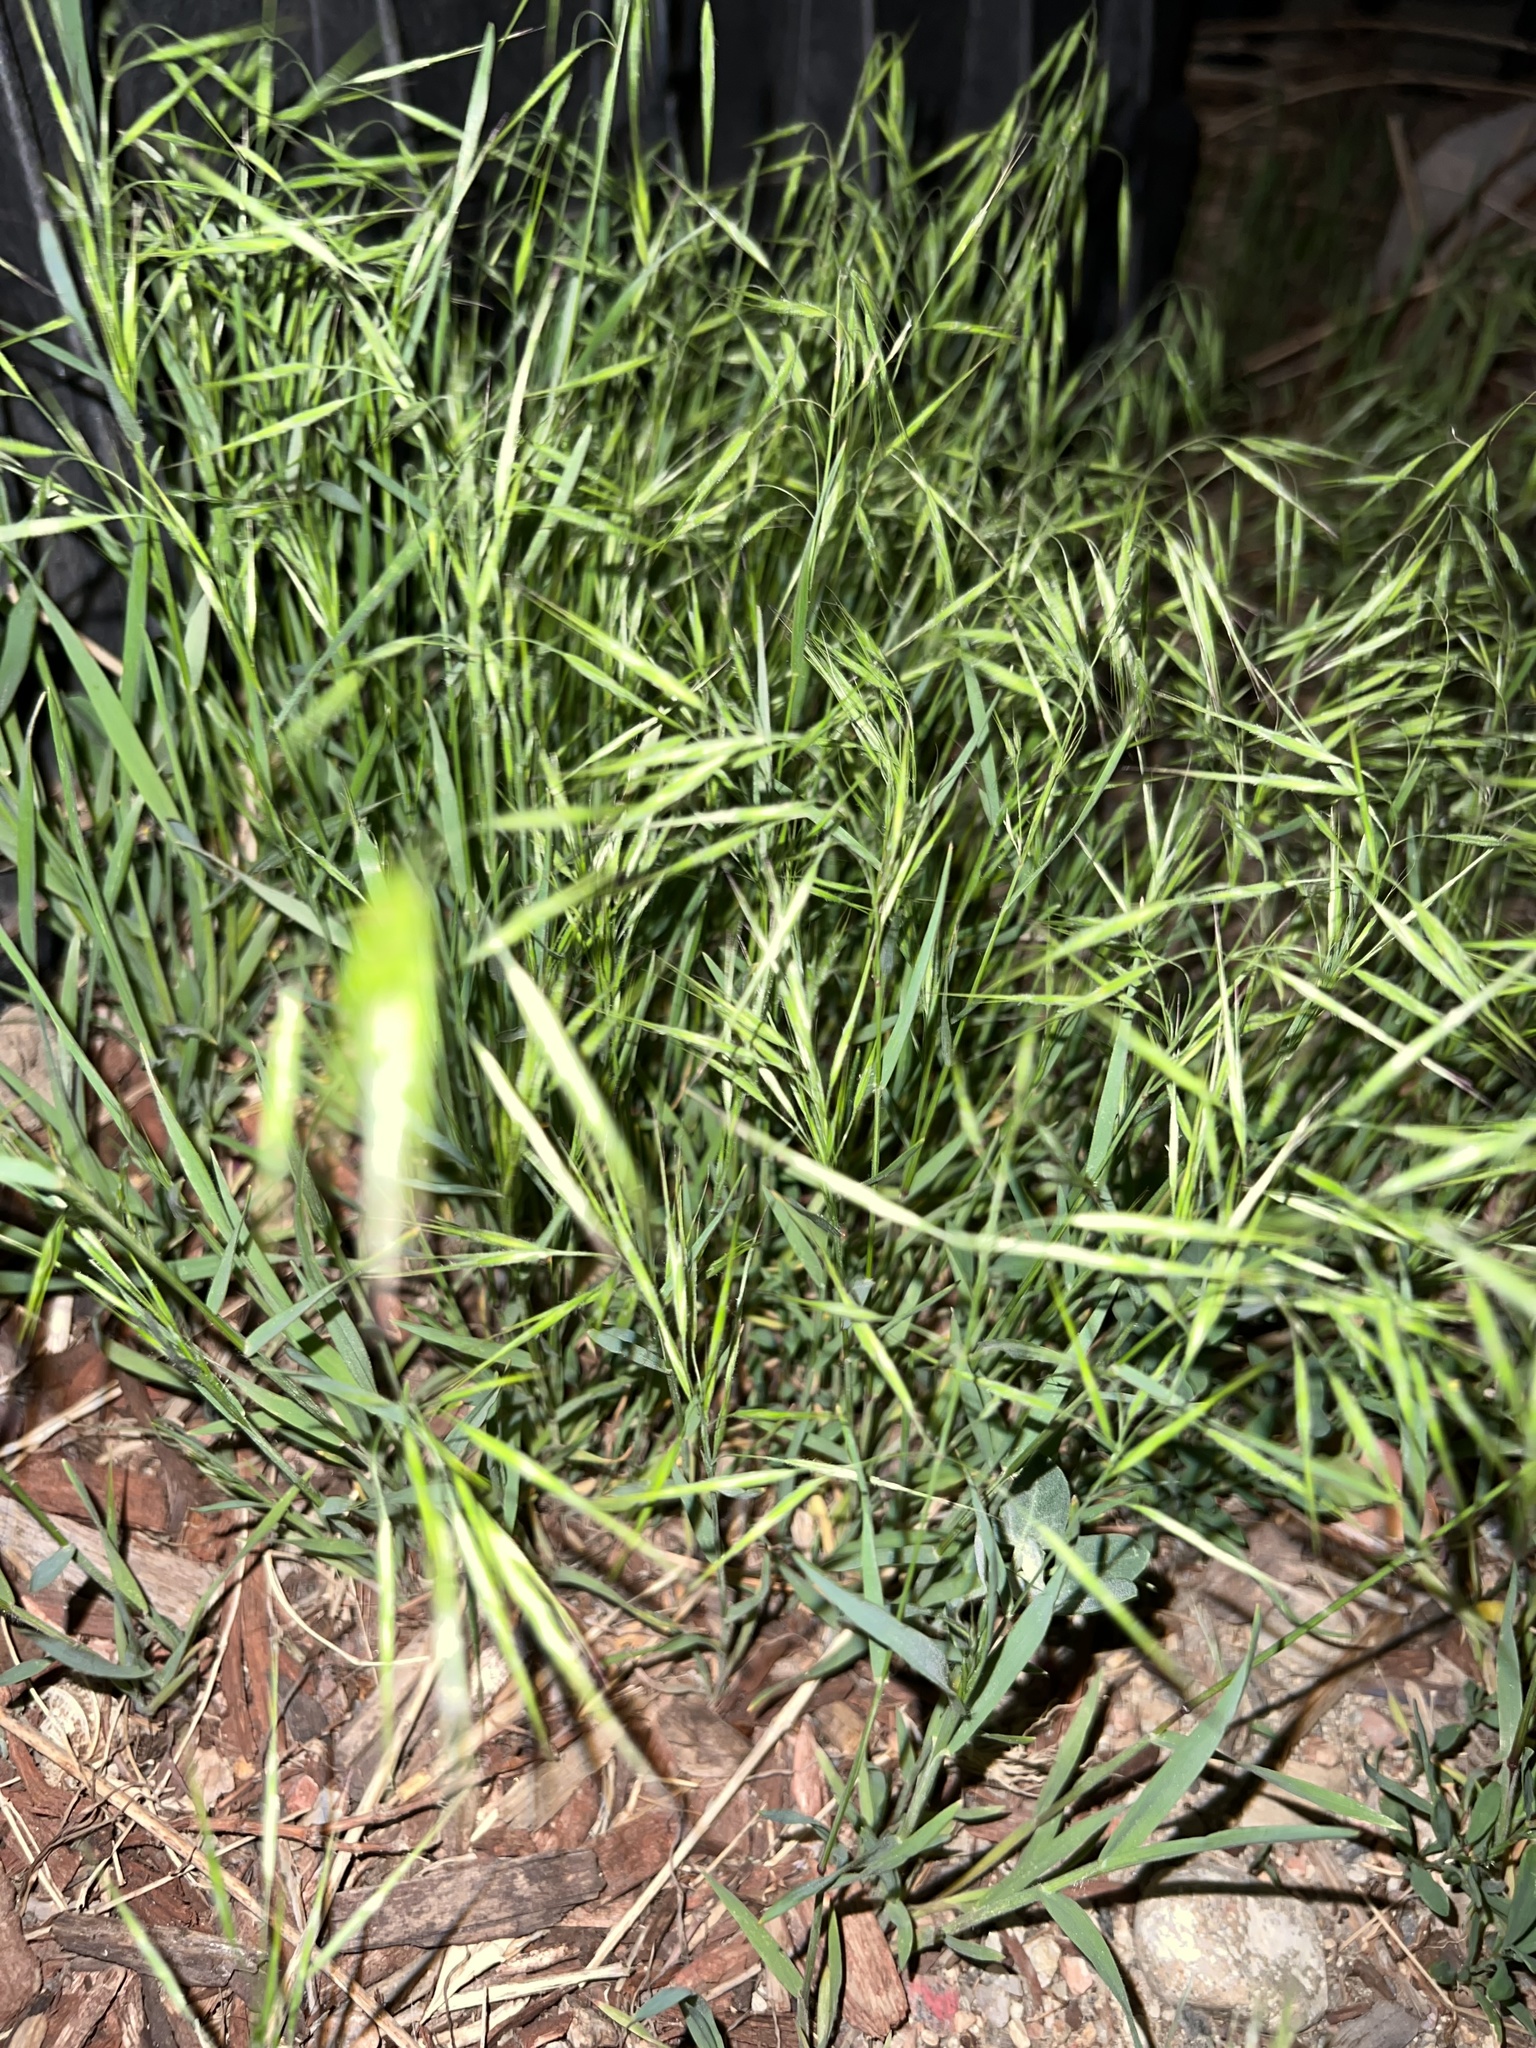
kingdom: Plantae
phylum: Tracheophyta
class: Liliopsida
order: Poales
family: Poaceae
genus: Bromus
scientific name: Bromus tectorum
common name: Cheatgrass
